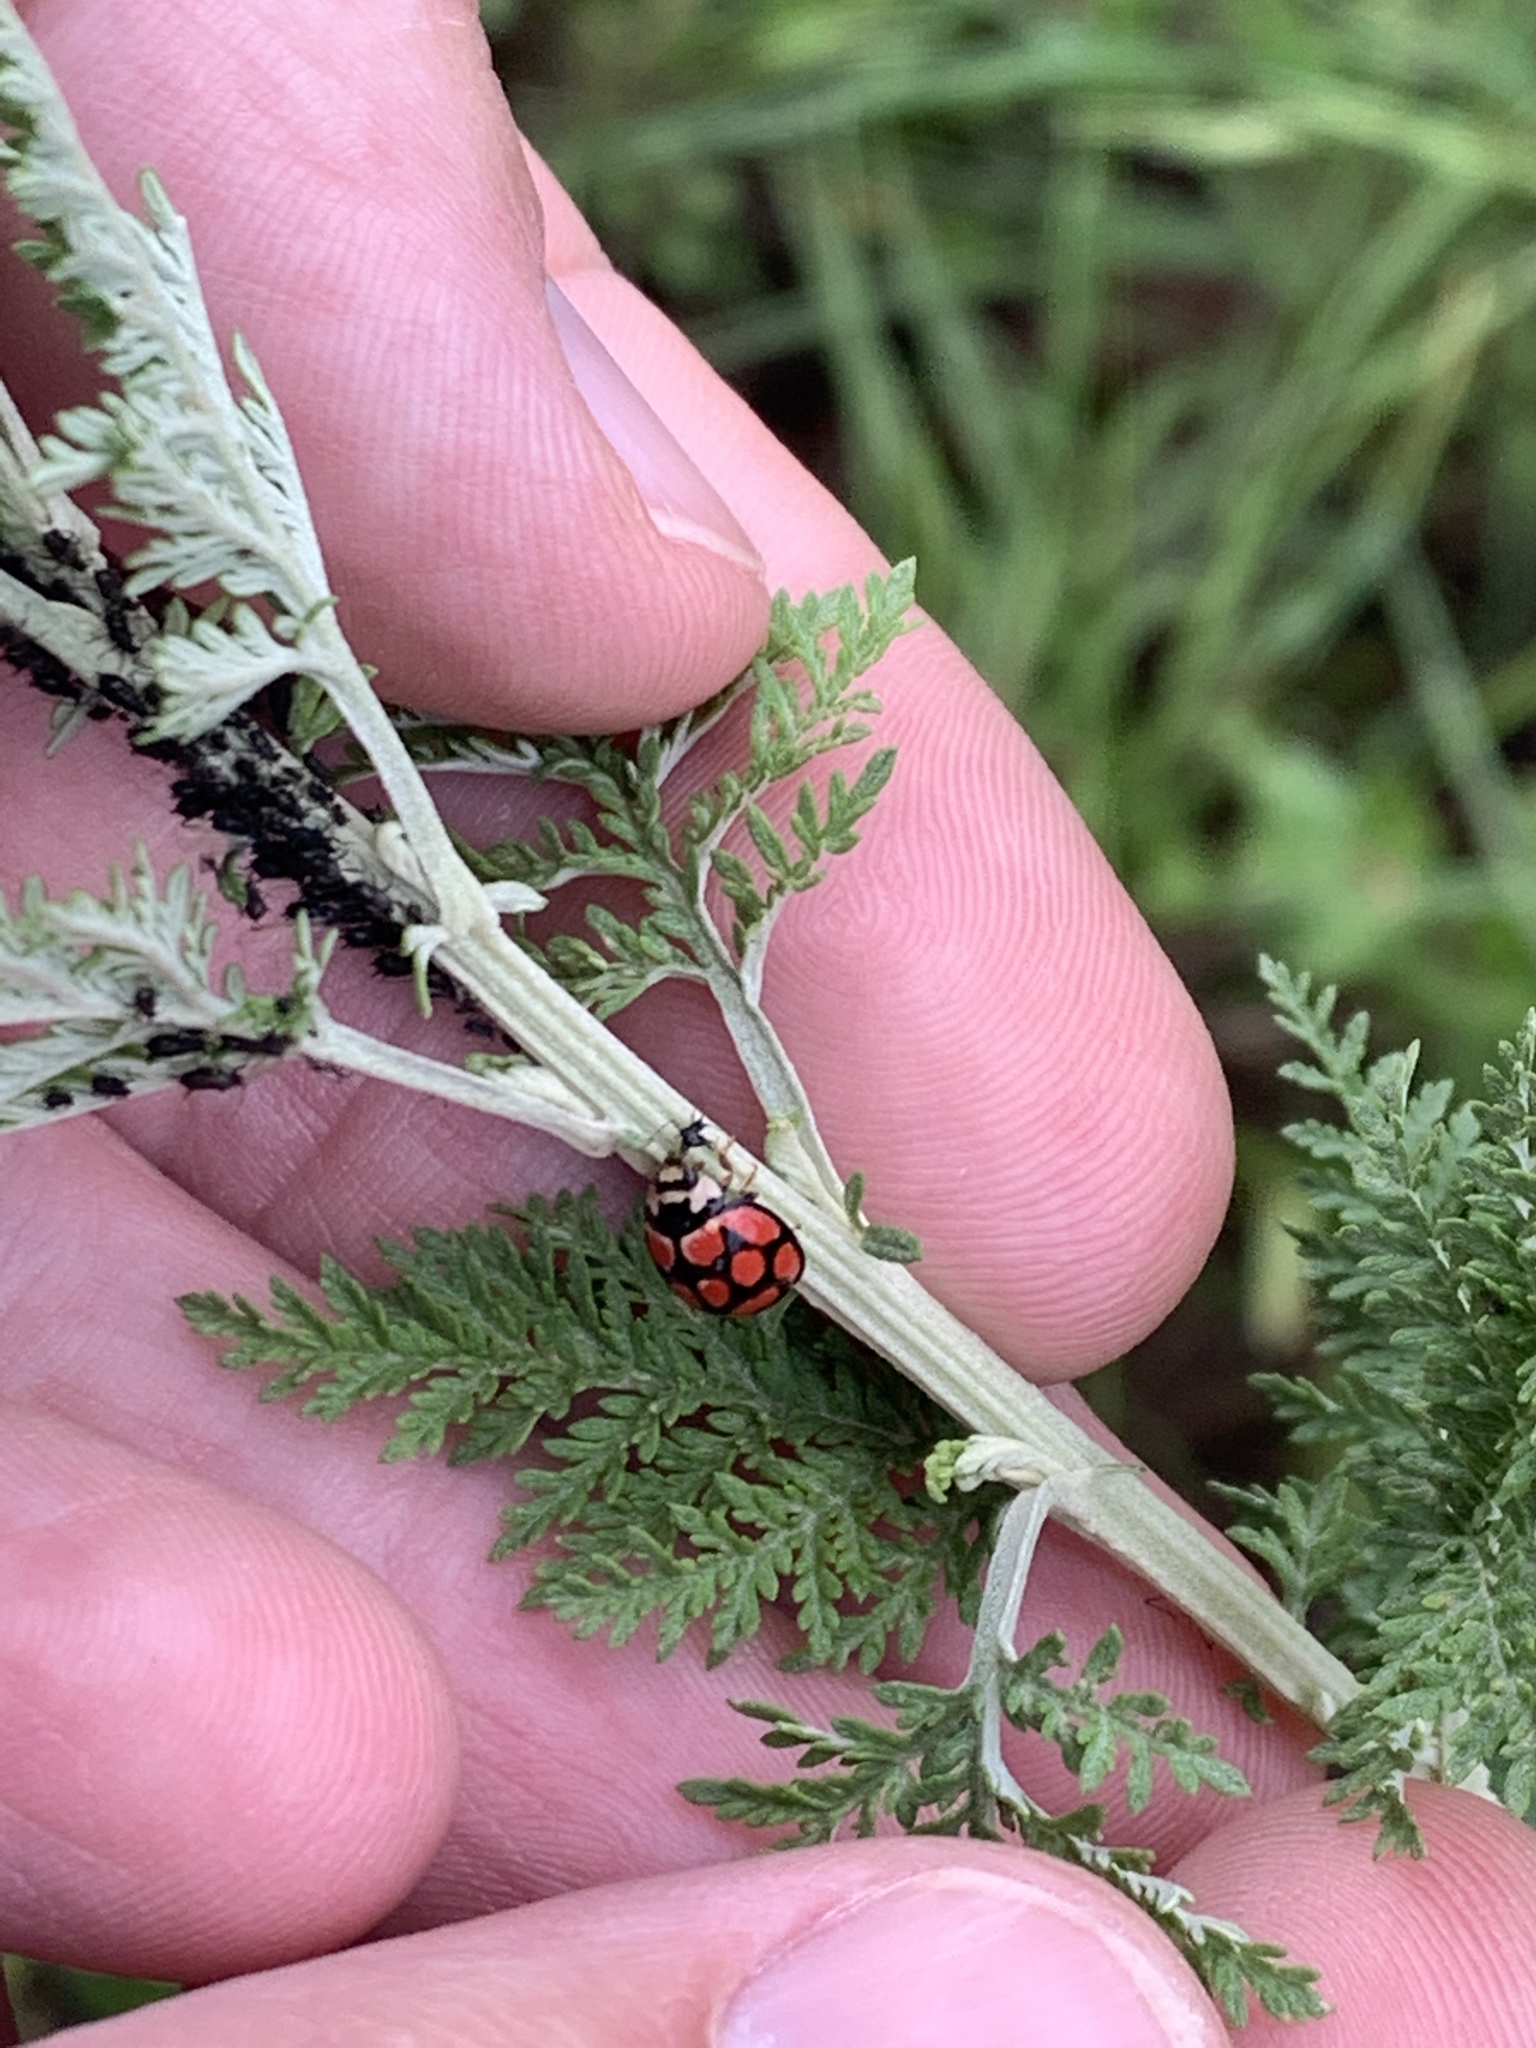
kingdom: Animalia
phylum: Arthropoda
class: Insecta
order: Coleoptera
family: Coccinellidae
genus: Cheilomenes
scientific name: Cheilomenes lunata
